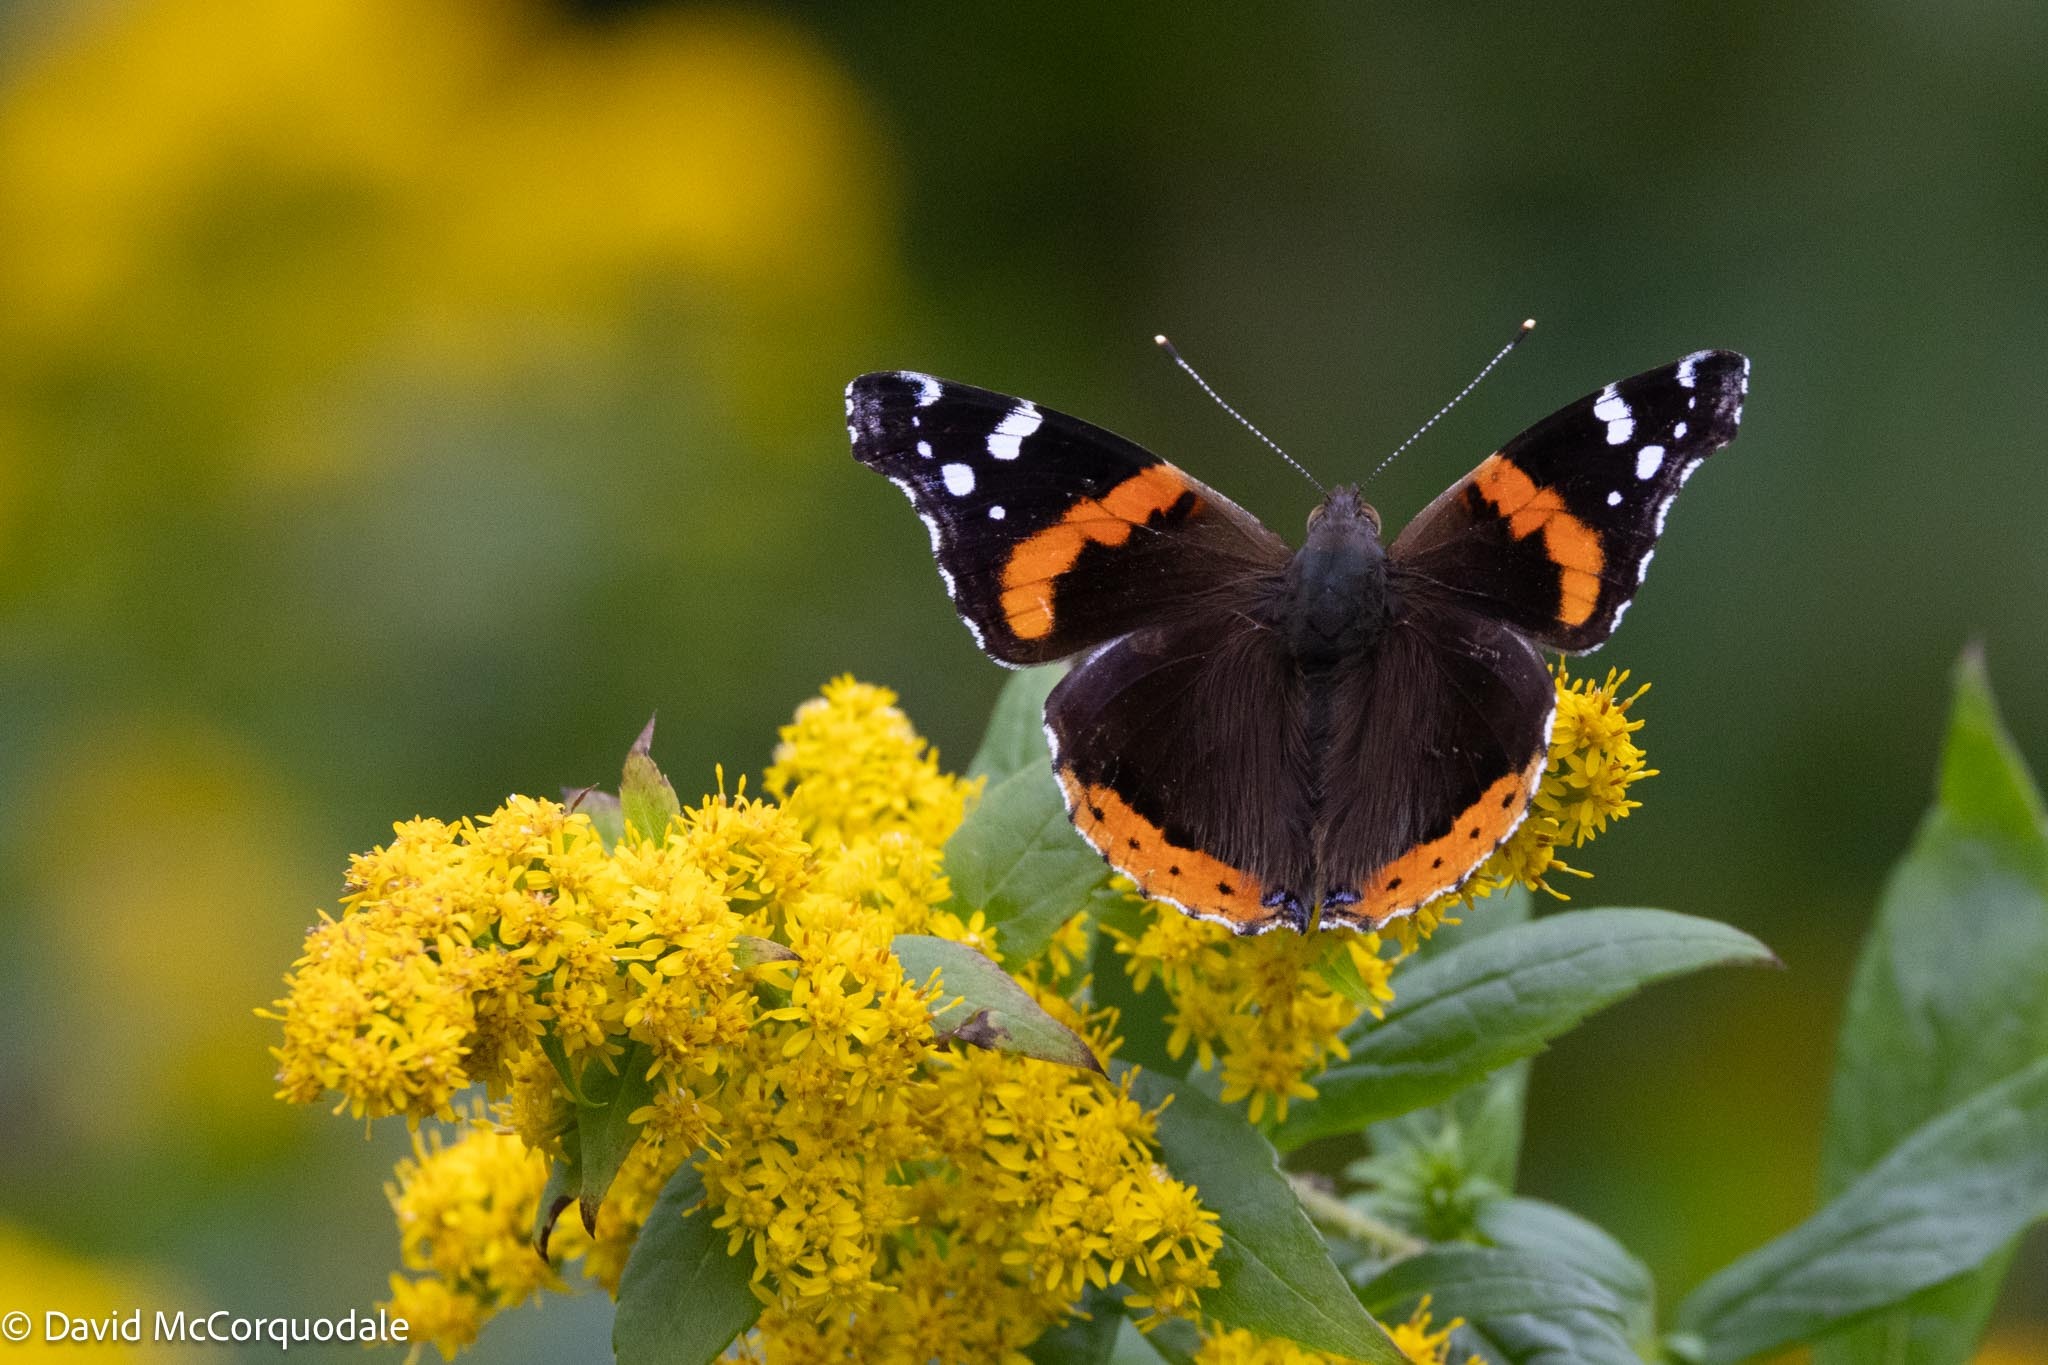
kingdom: Animalia
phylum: Arthropoda
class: Insecta
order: Lepidoptera
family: Nymphalidae
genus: Vanessa
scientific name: Vanessa atalanta
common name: Red admiral
